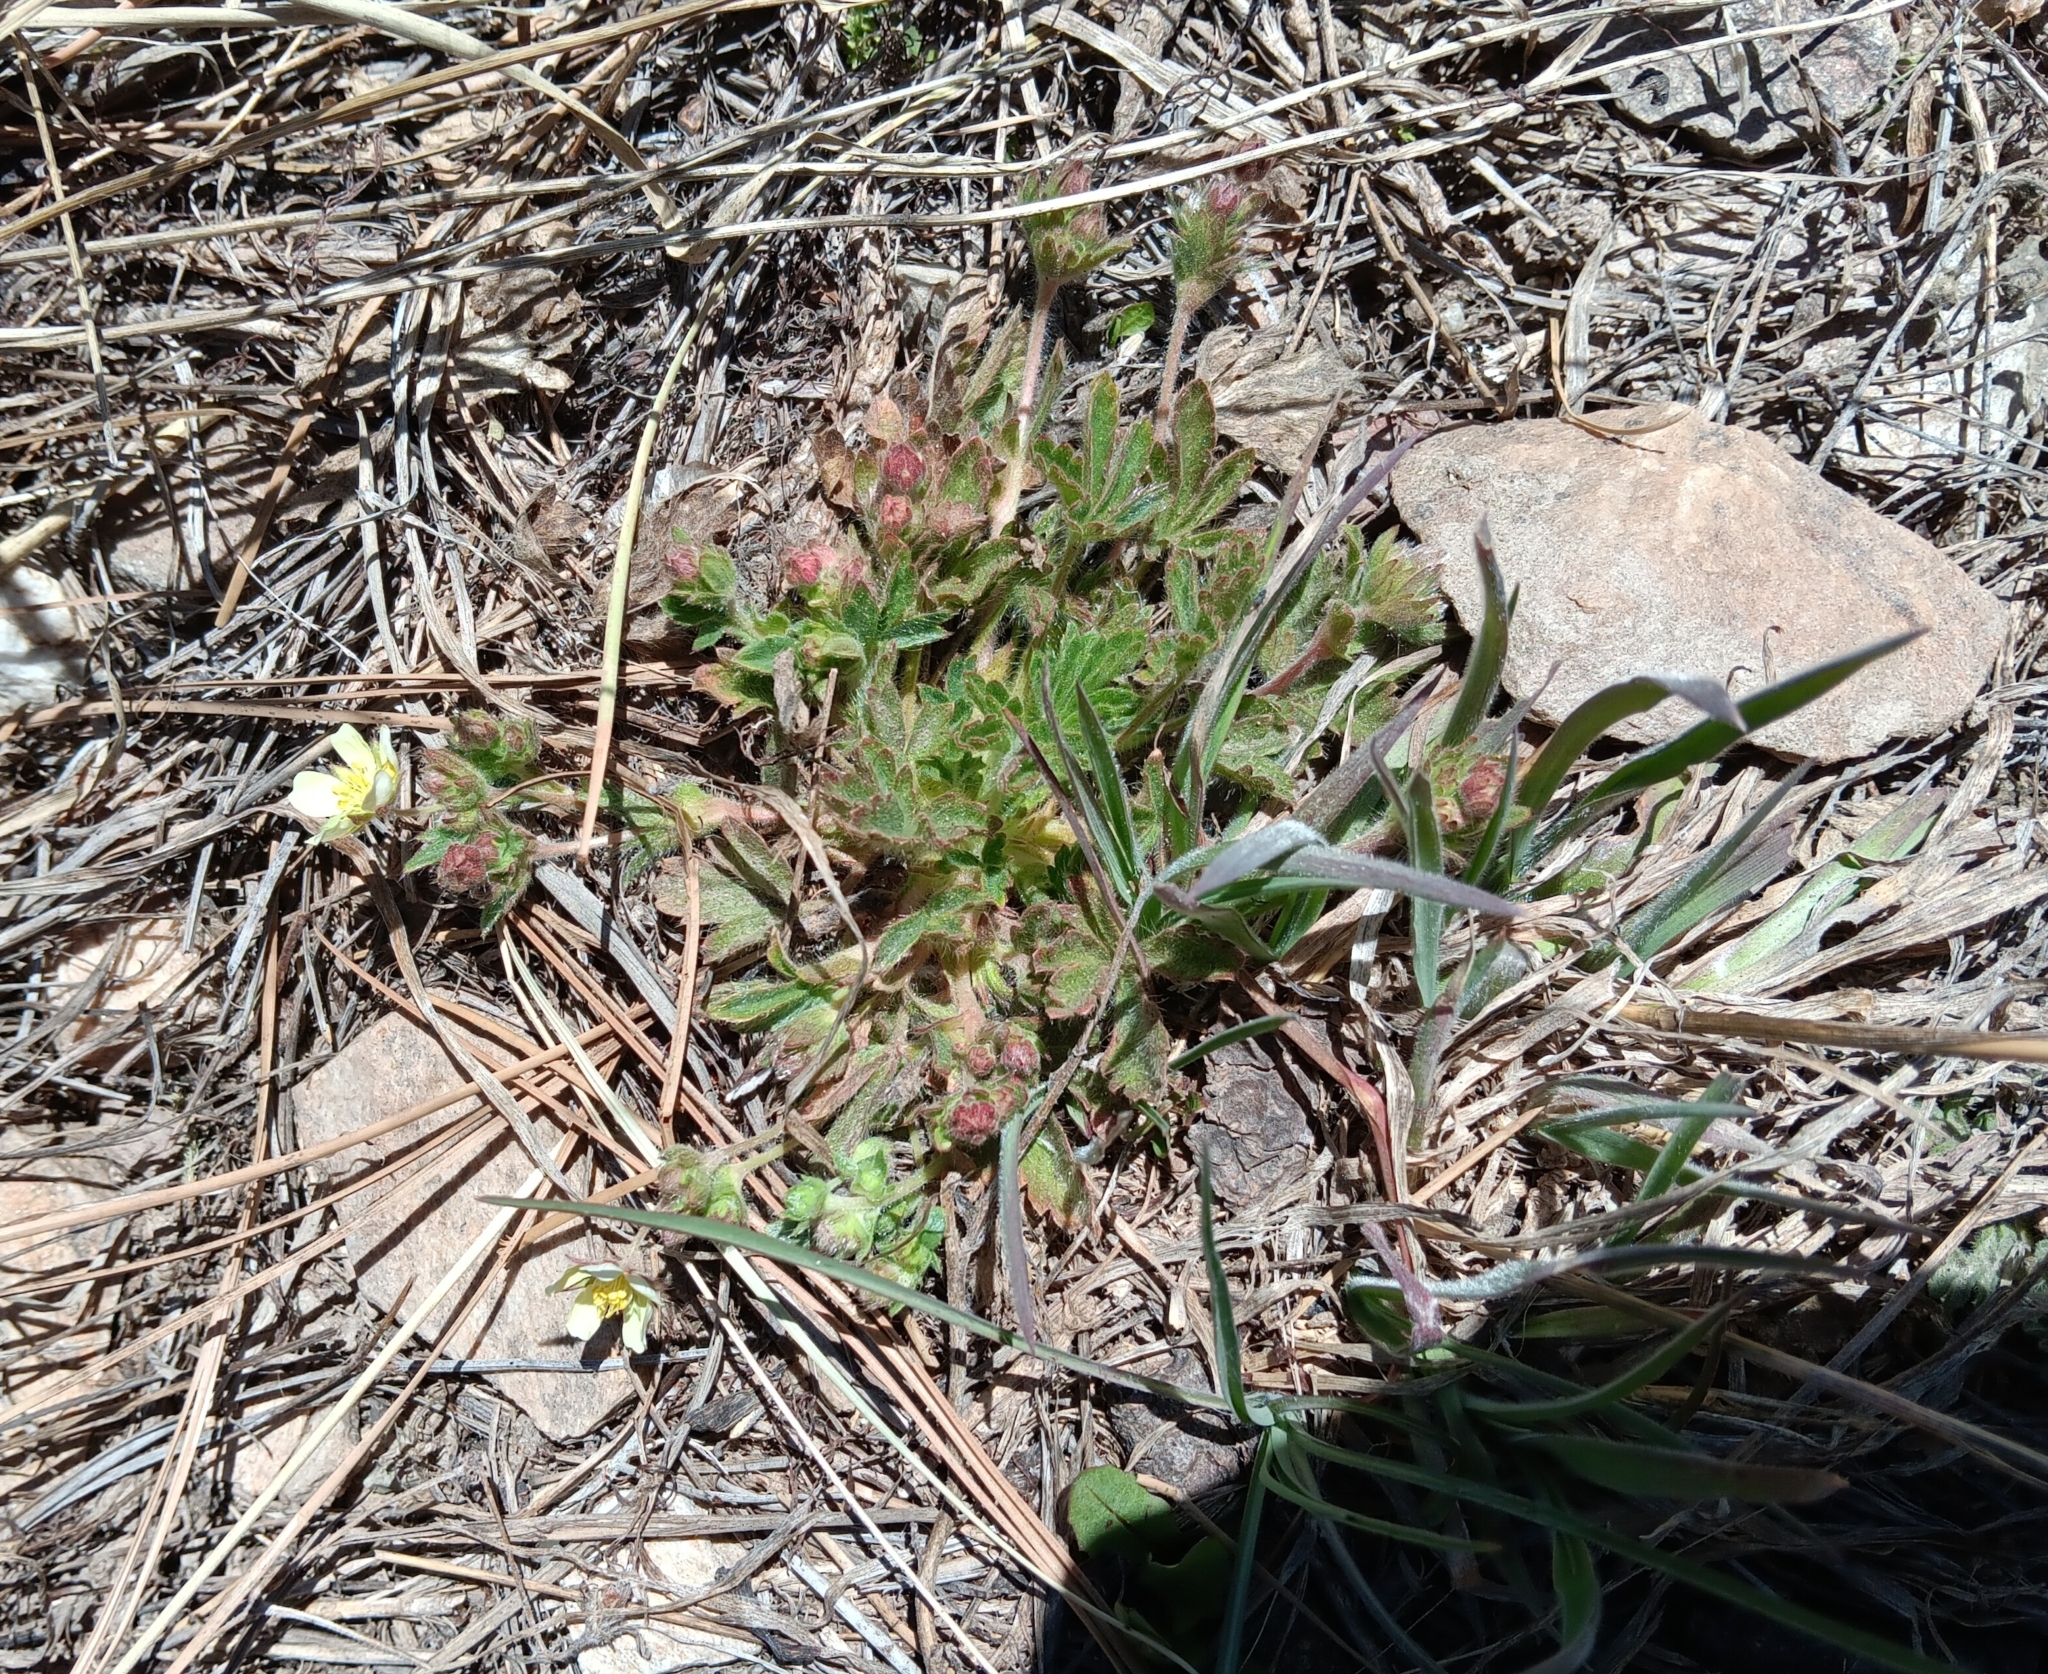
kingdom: Plantae
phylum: Tracheophyta
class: Magnoliopsida
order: Rosales
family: Rosaceae
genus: Potentilla
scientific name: Potentilla subviscosa
